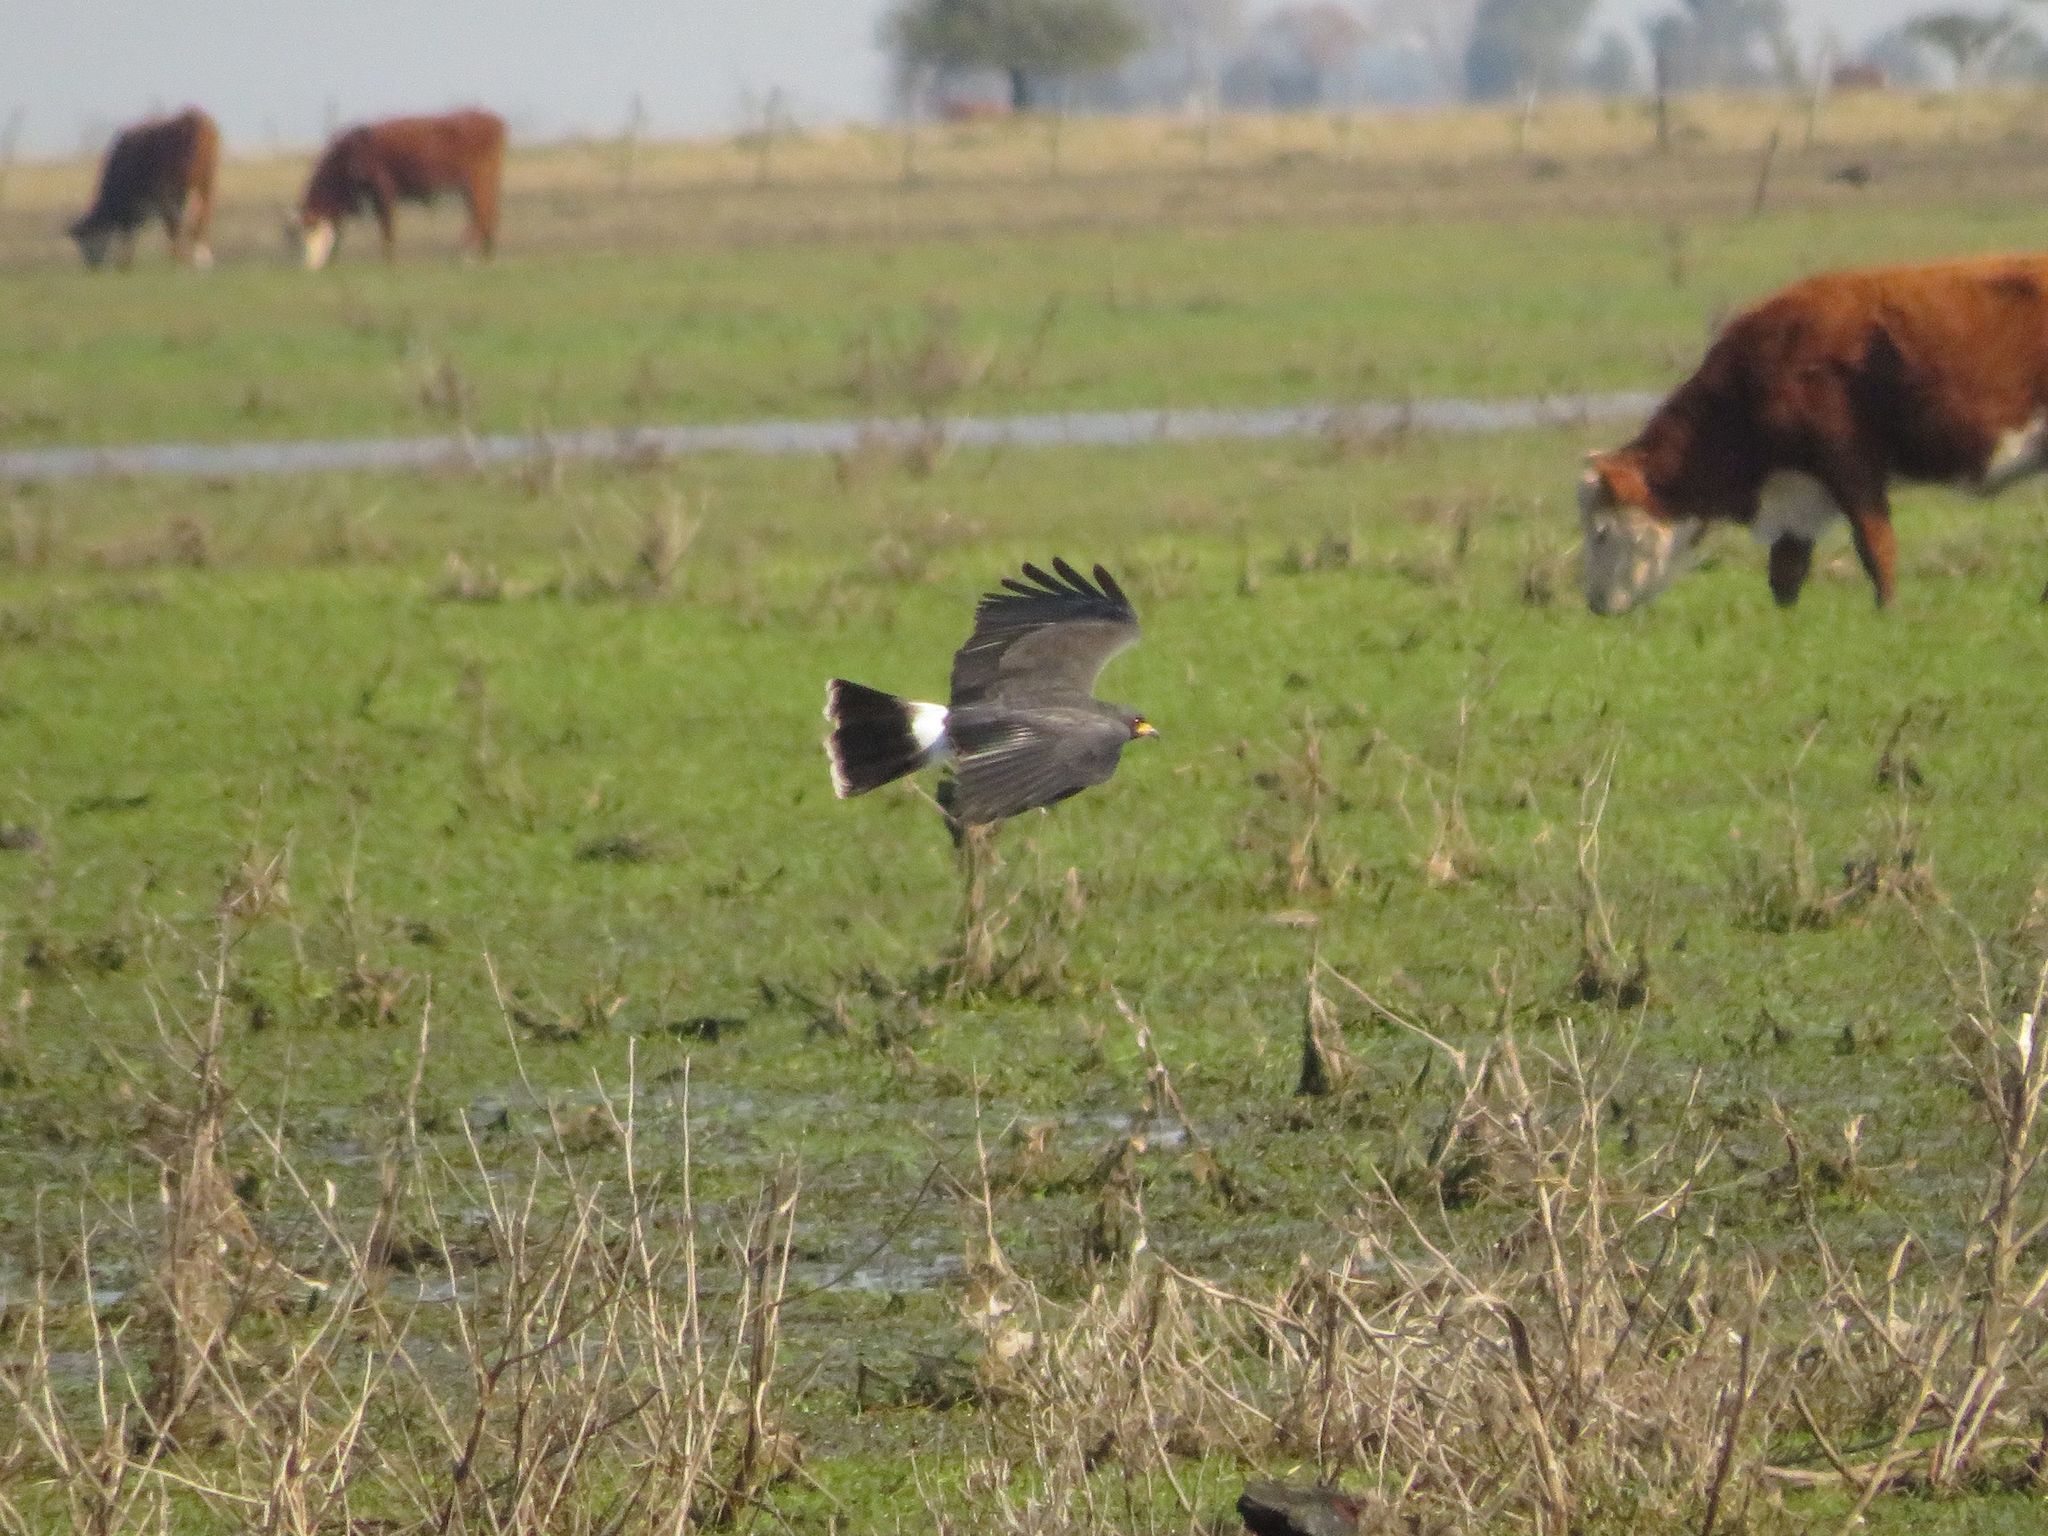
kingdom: Animalia
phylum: Chordata
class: Aves
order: Accipitriformes
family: Accipitridae
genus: Rostrhamus
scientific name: Rostrhamus sociabilis
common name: Snail kite
